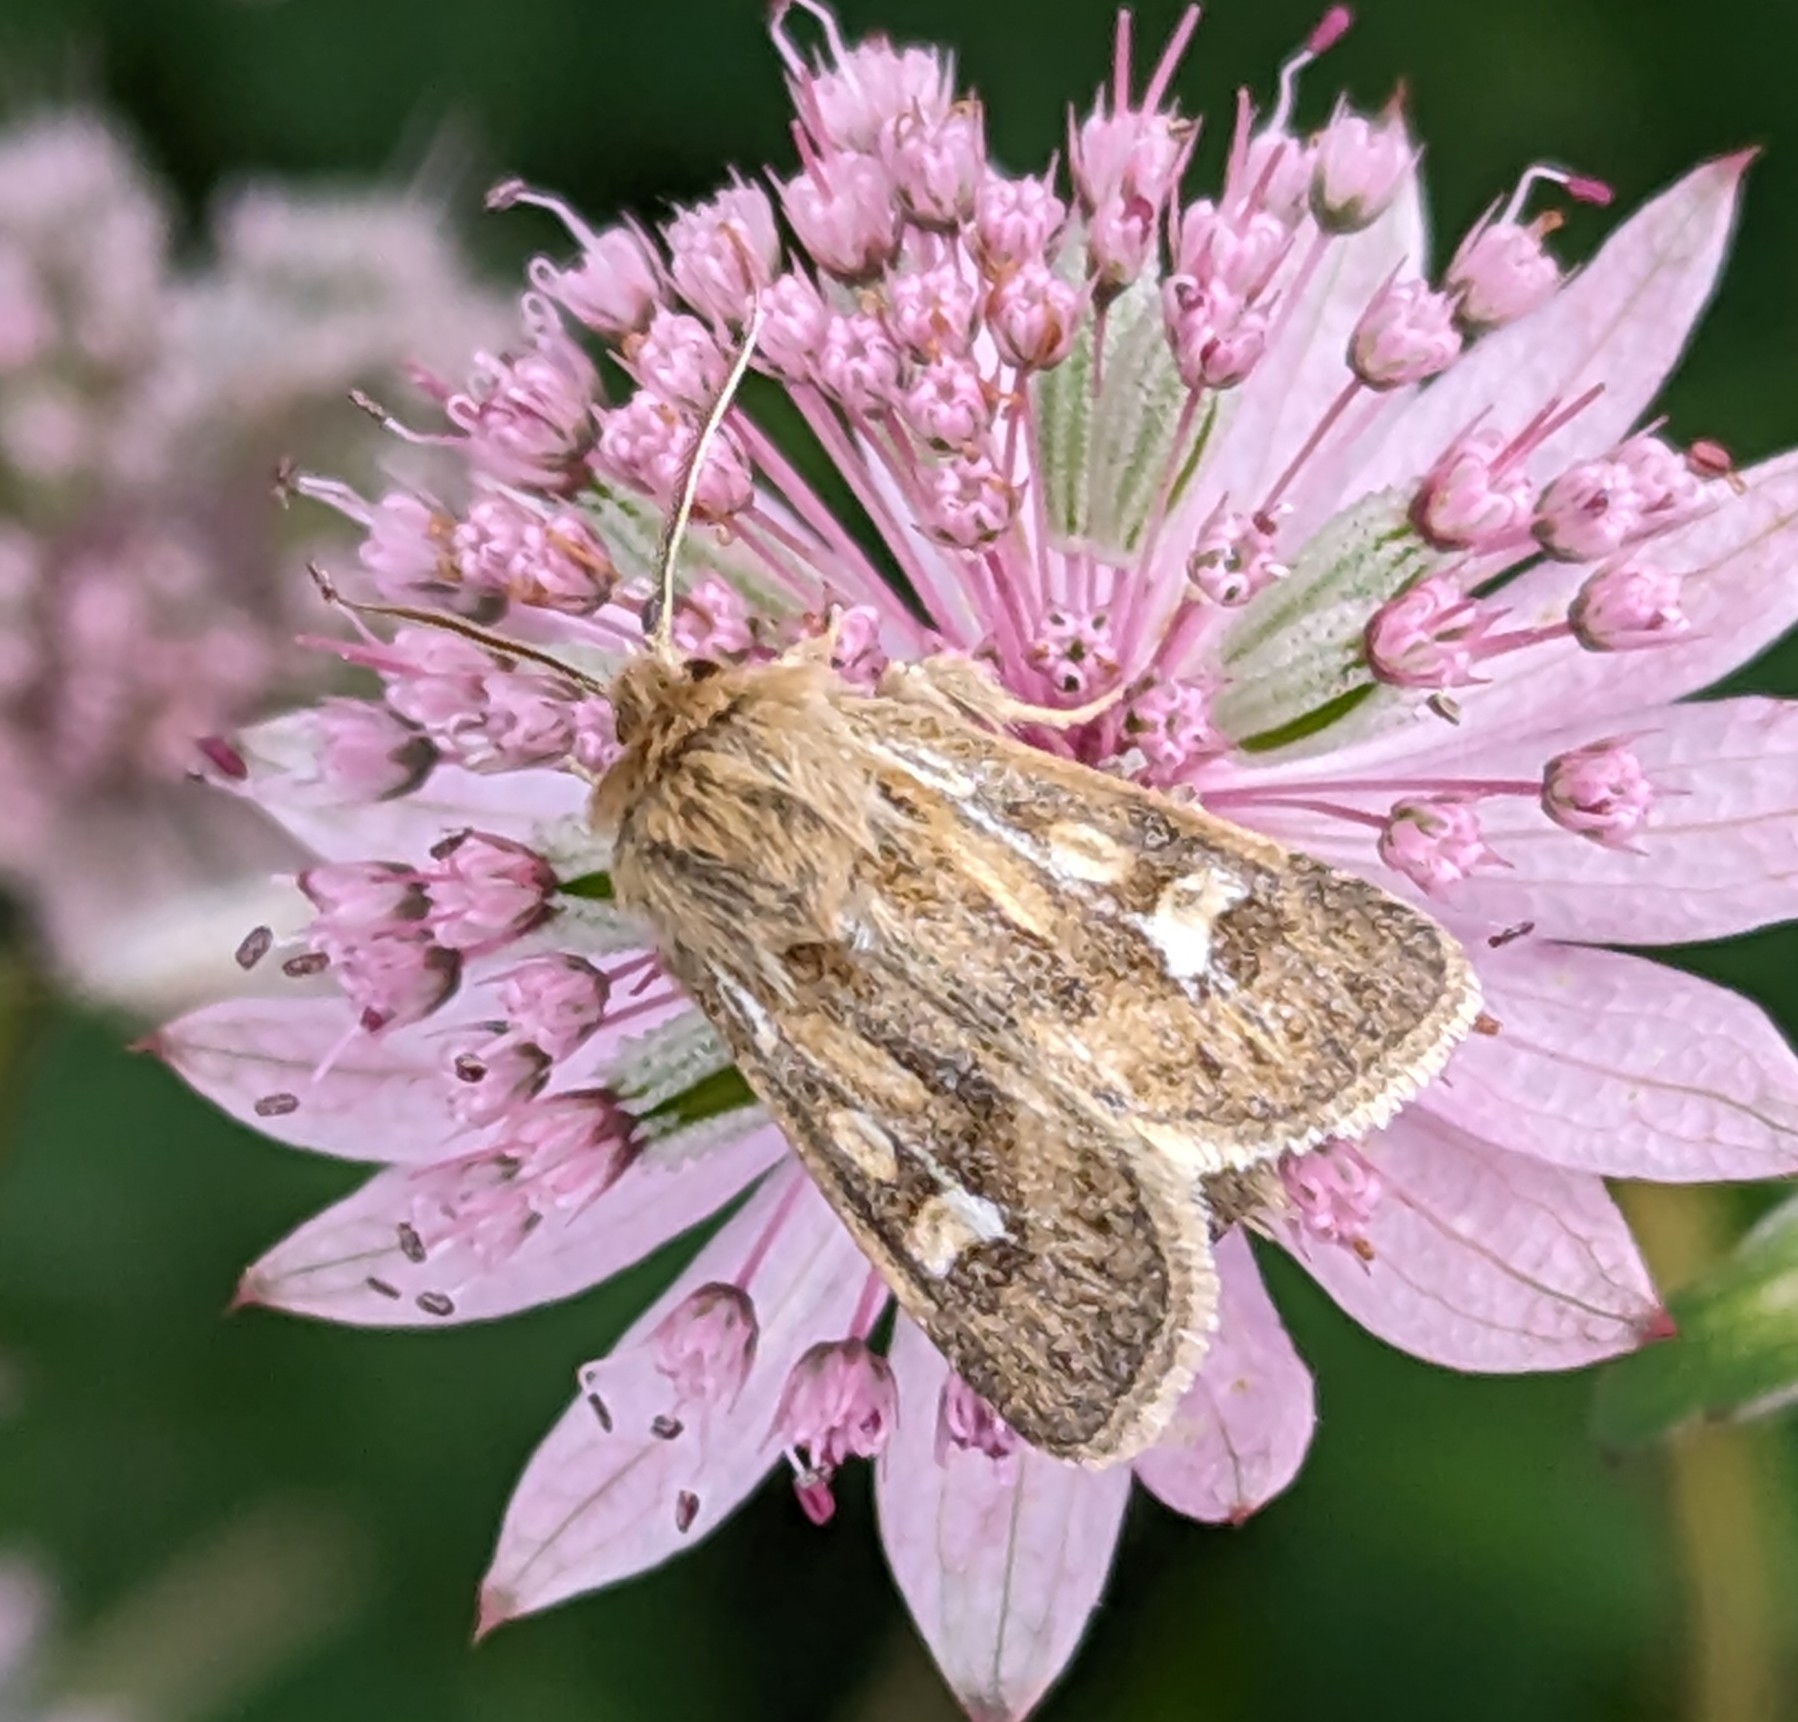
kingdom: Animalia
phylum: Arthropoda
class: Insecta
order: Lepidoptera
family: Noctuidae
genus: Cerapteryx
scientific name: Cerapteryx graminis
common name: Antler moth
